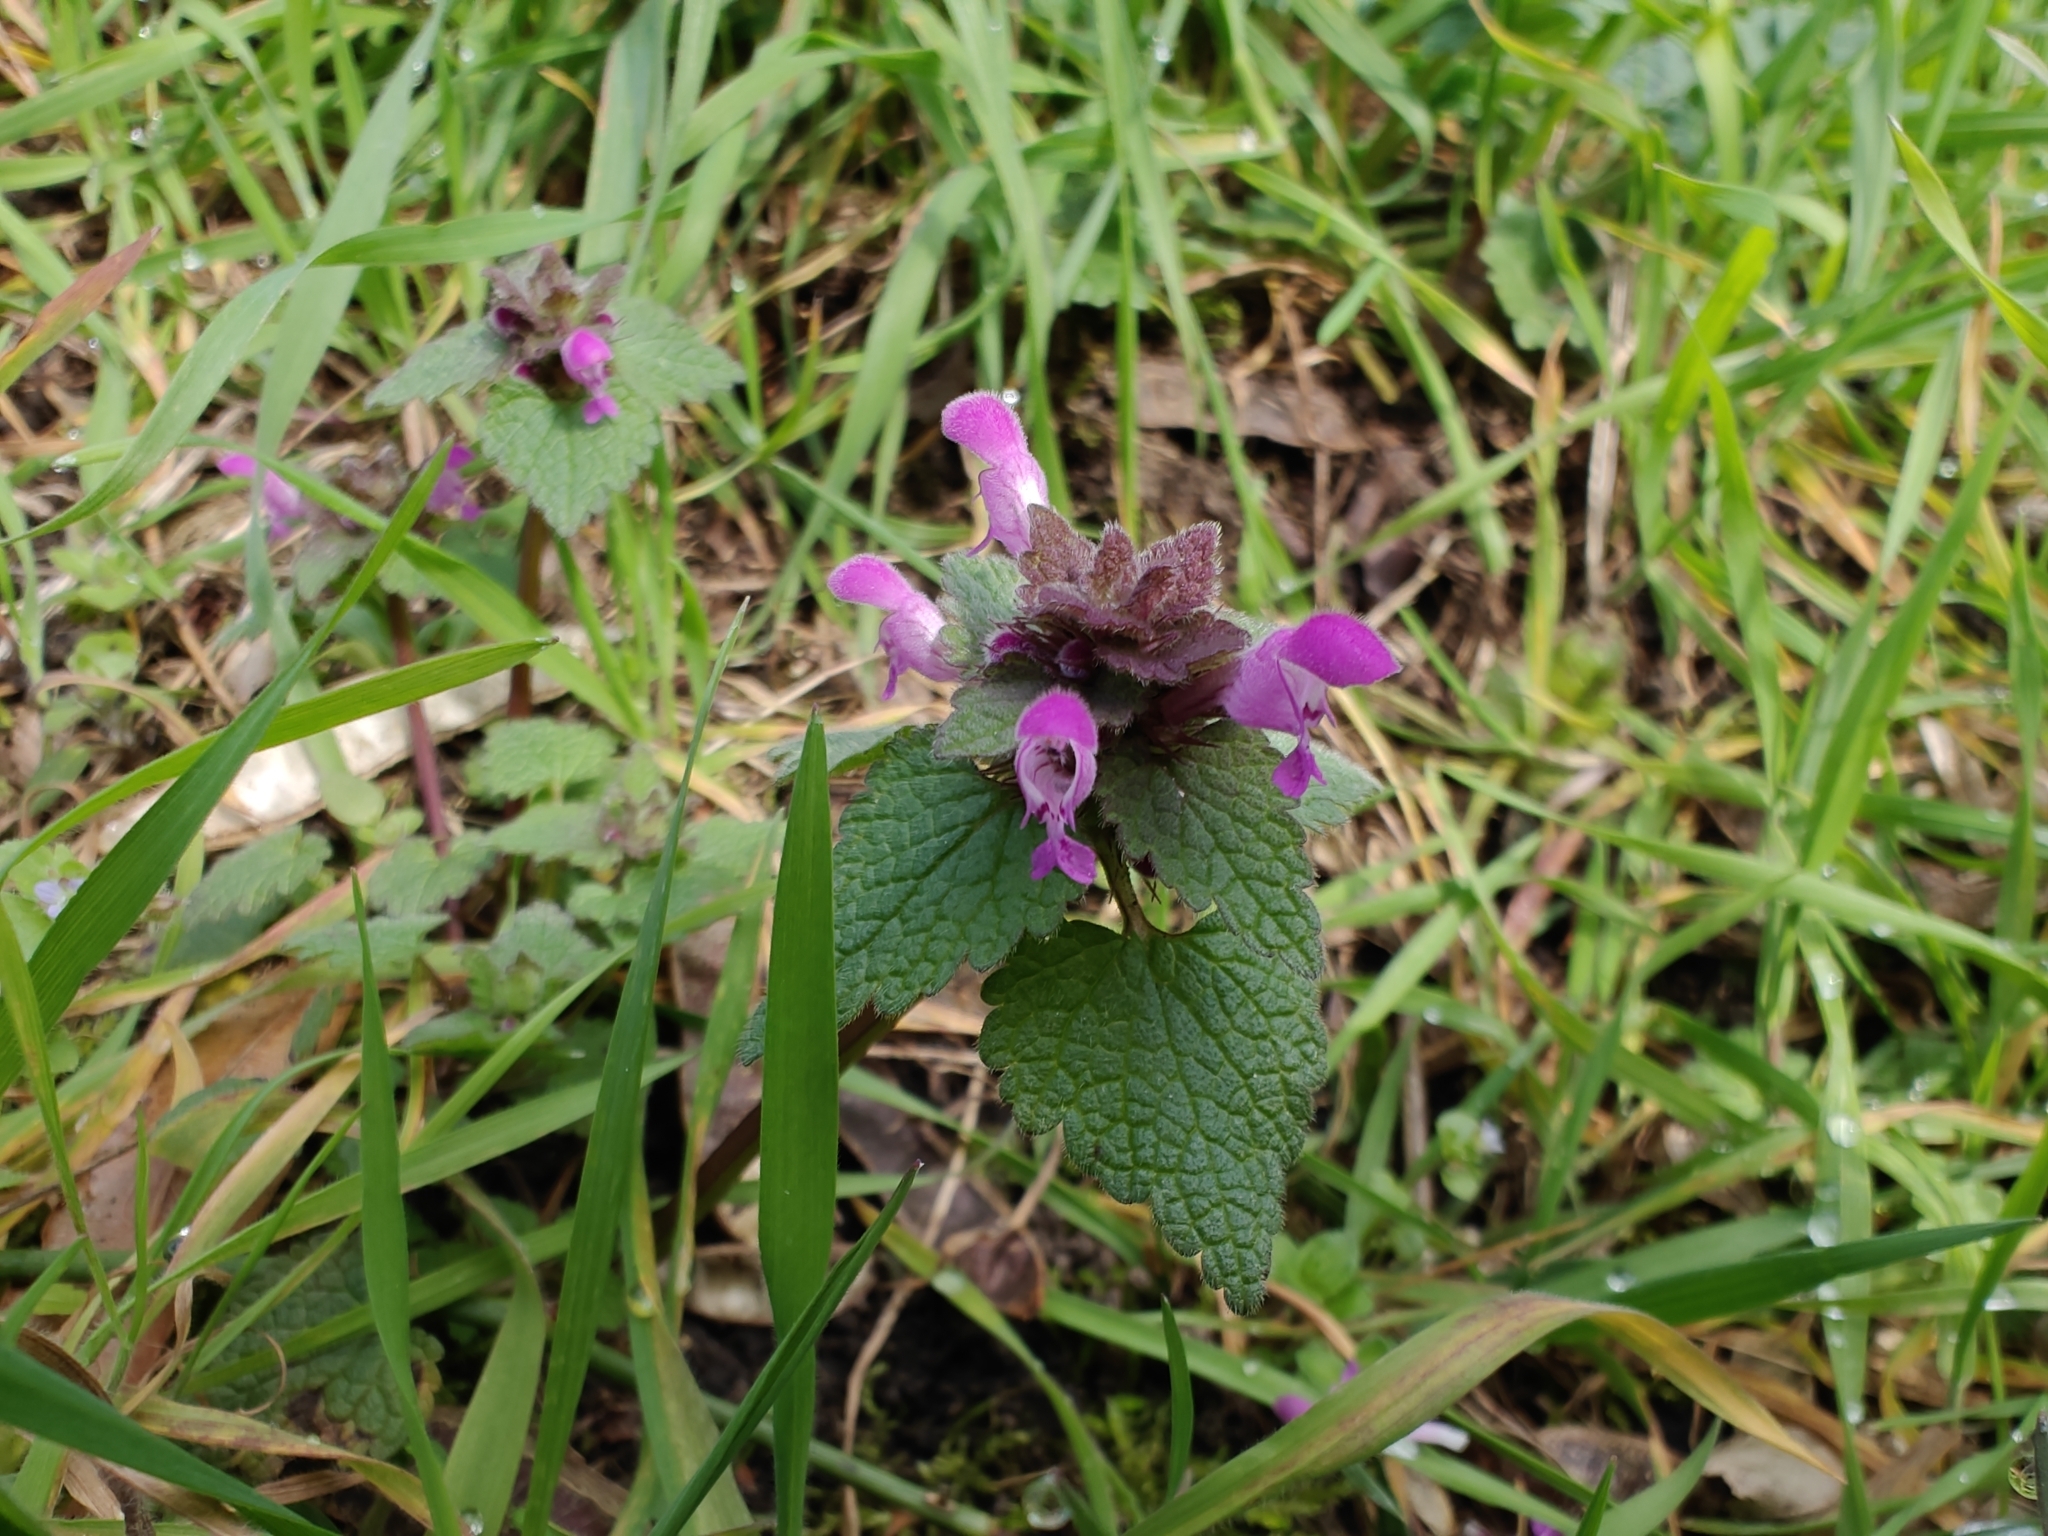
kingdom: Plantae
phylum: Tracheophyta
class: Magnoliopsida
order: Lamiales
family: Lamiaceae
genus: Lamium
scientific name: Lamium purpureum
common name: Red dead-nettle
